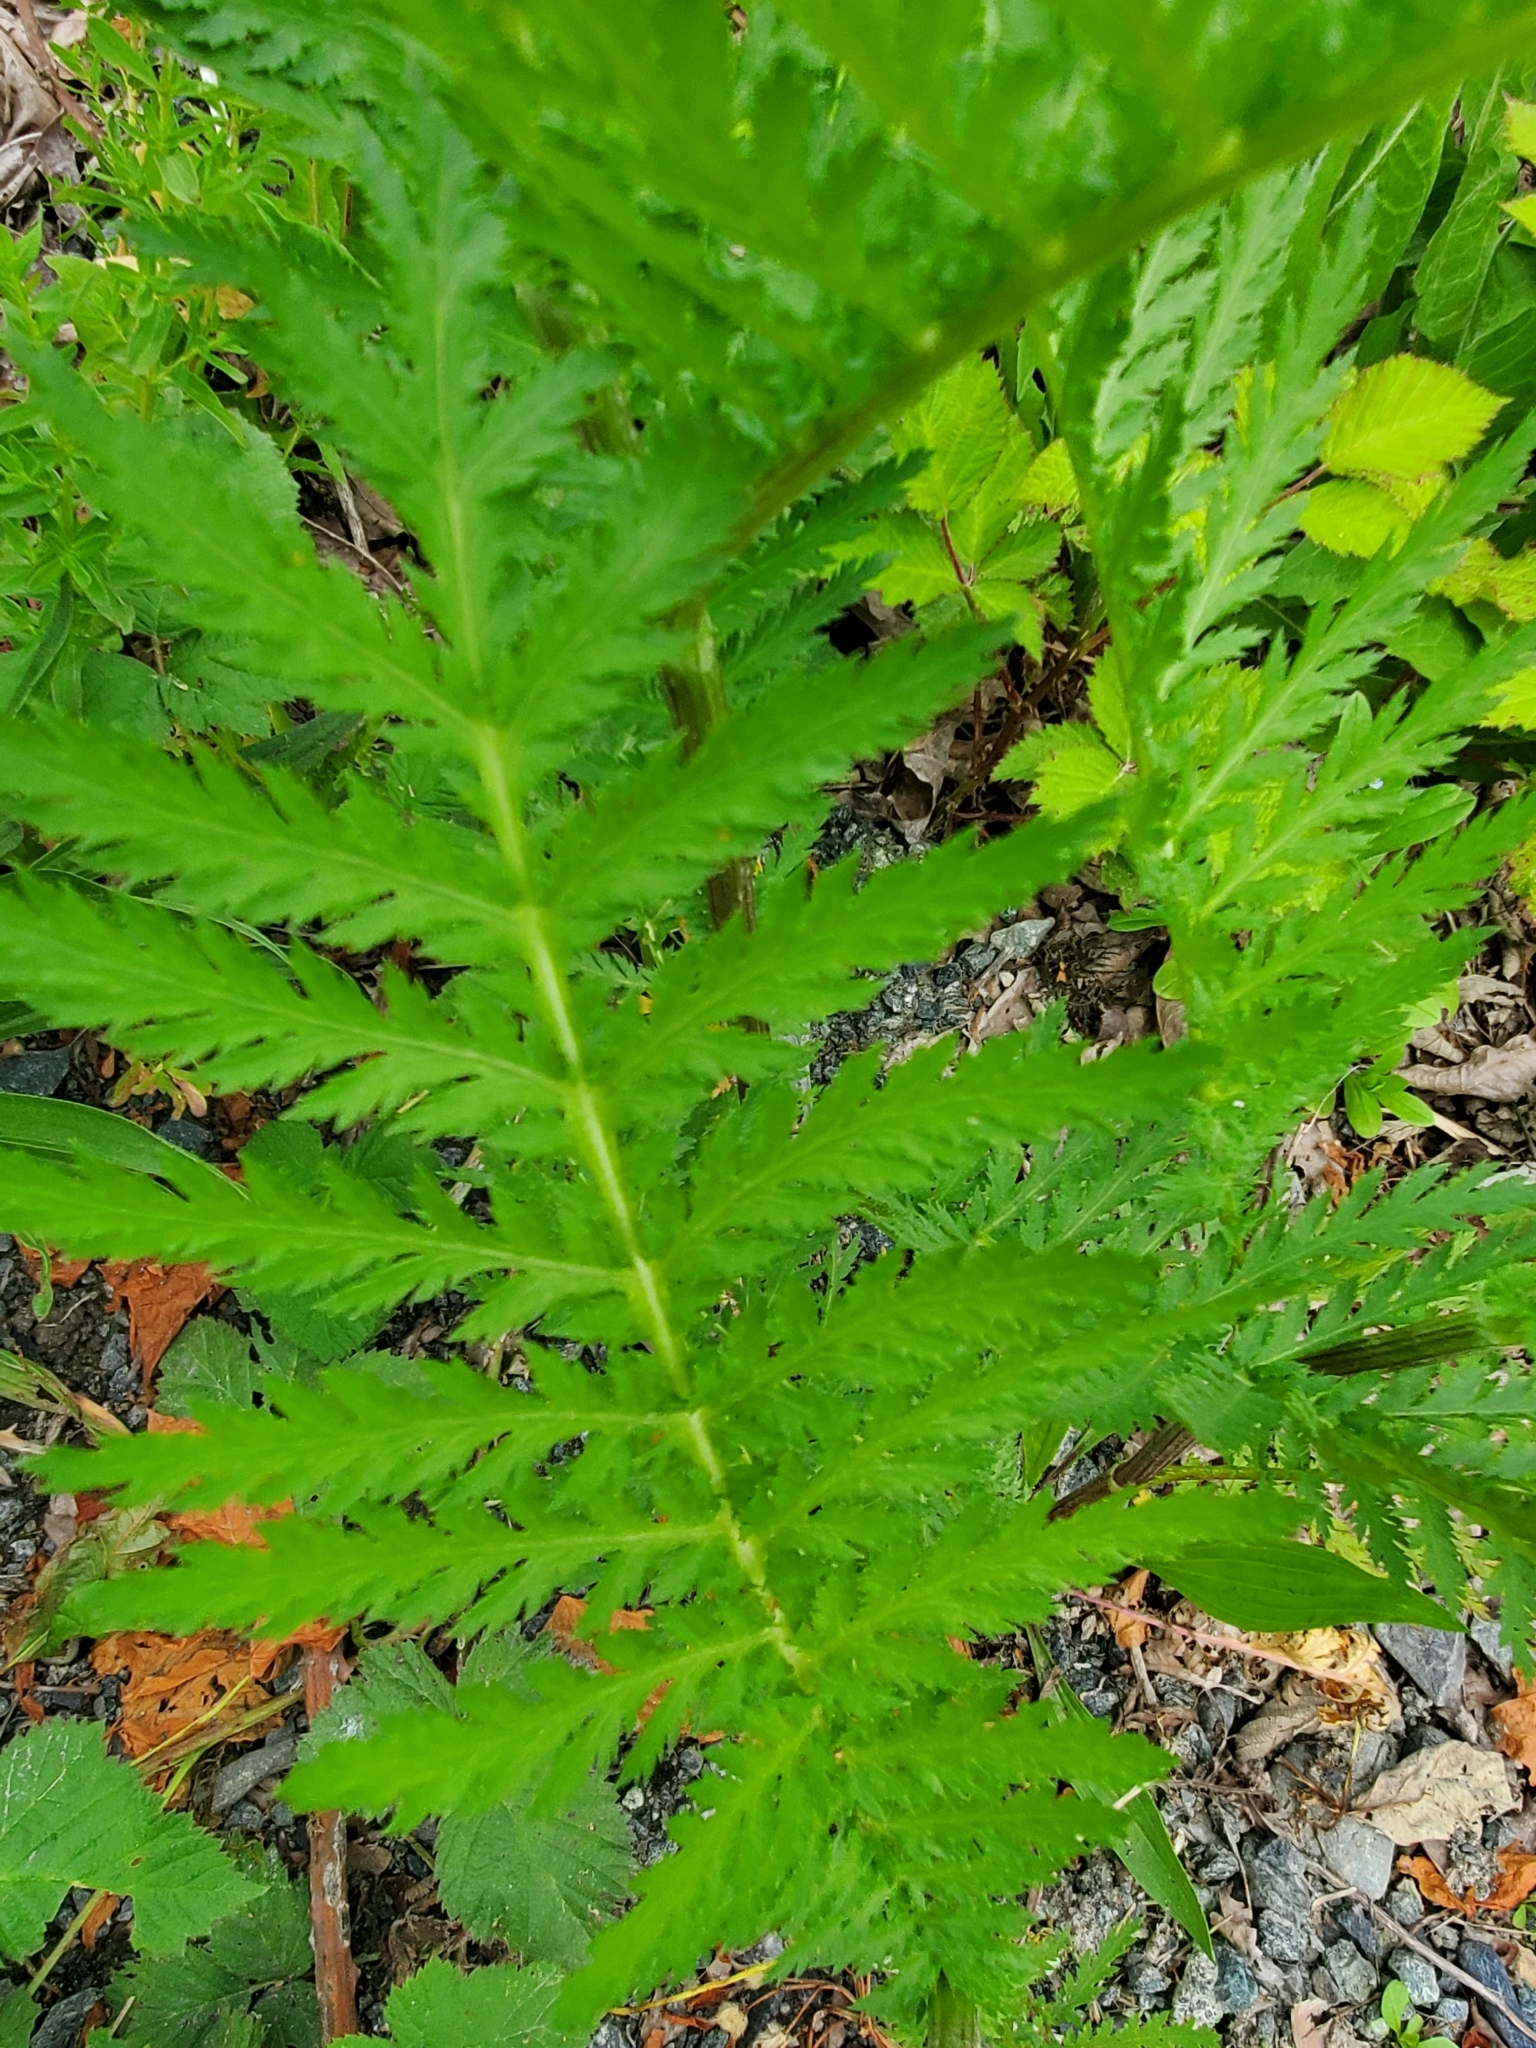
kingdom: Plantae
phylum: Tracheophyta
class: Magnoliopsida
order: Asterales
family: Asteraceae
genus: Tanacetum
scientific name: Tanacetum vulgare
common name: Common tansy
